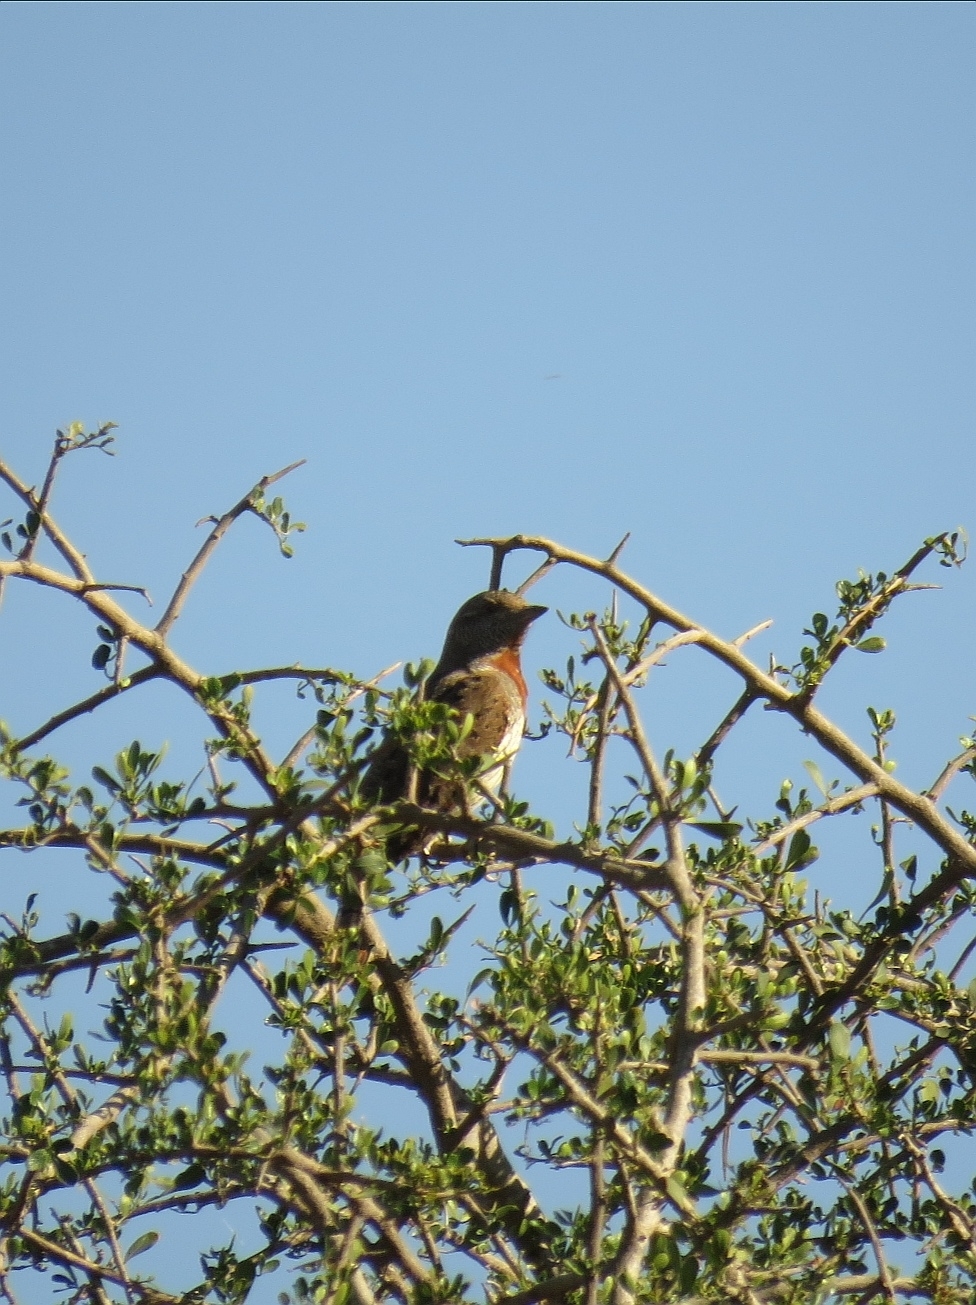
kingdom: Animalia
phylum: Chordata
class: Aves
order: Piciformes
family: Picidae
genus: Jynx
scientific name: Jynx ruficollis
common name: Red-throated wryneck
